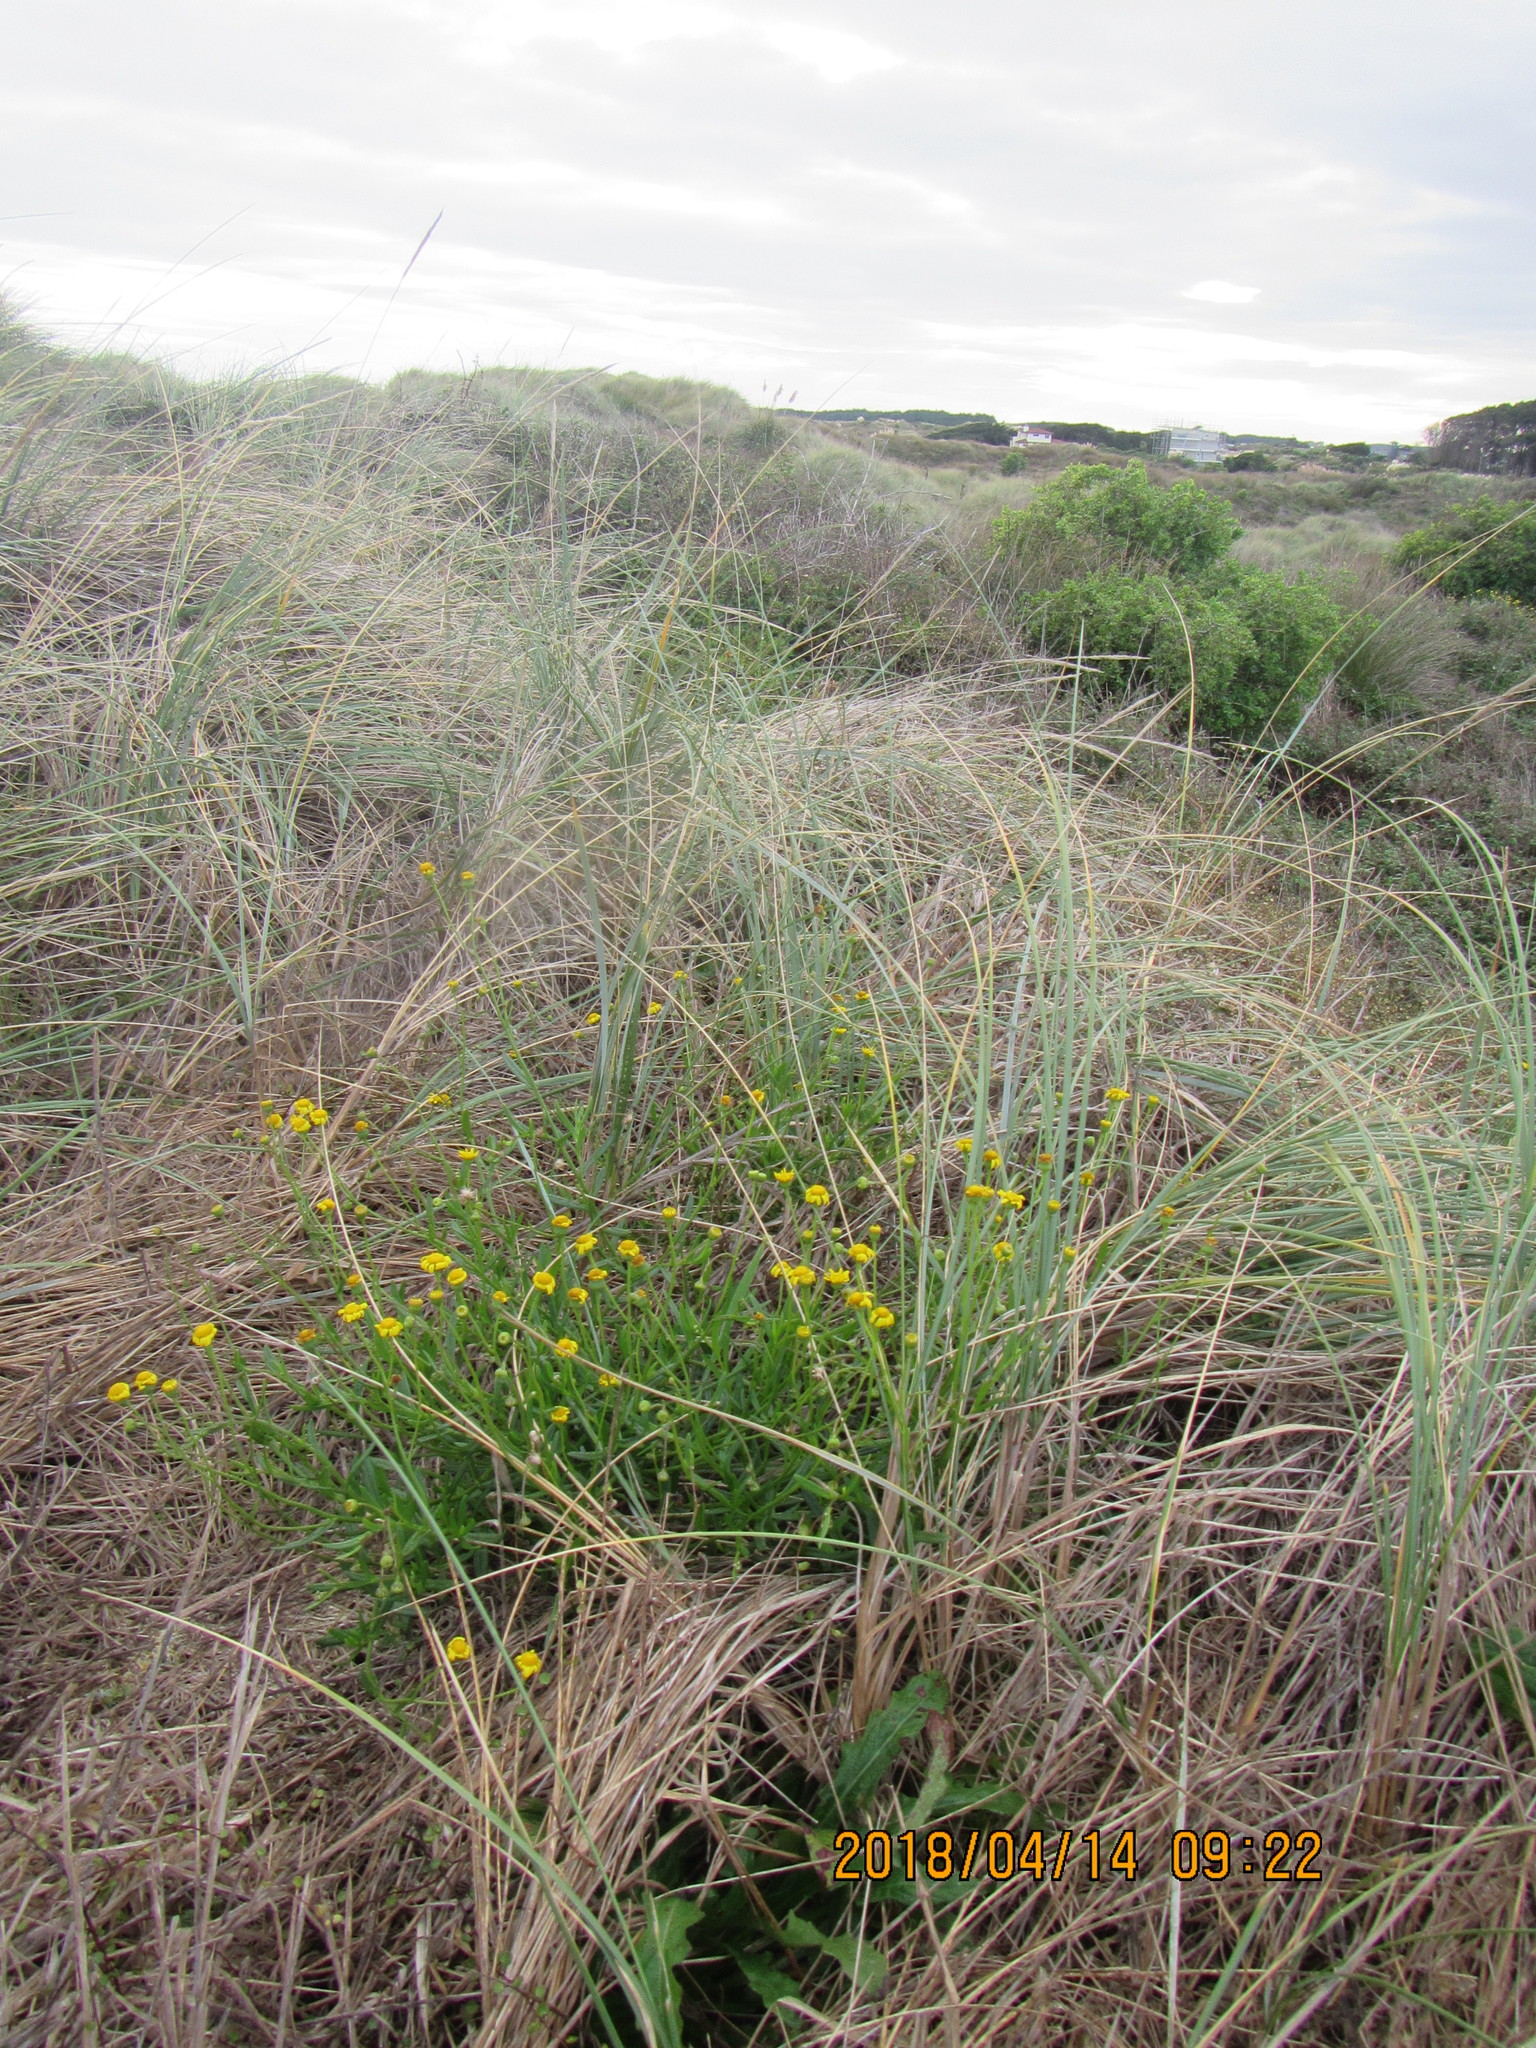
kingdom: Plantae
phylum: Tracheophyta
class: Magnoliopsida
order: Asterales
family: Asteraceae
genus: Senecio
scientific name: Senecio skirrhodon
